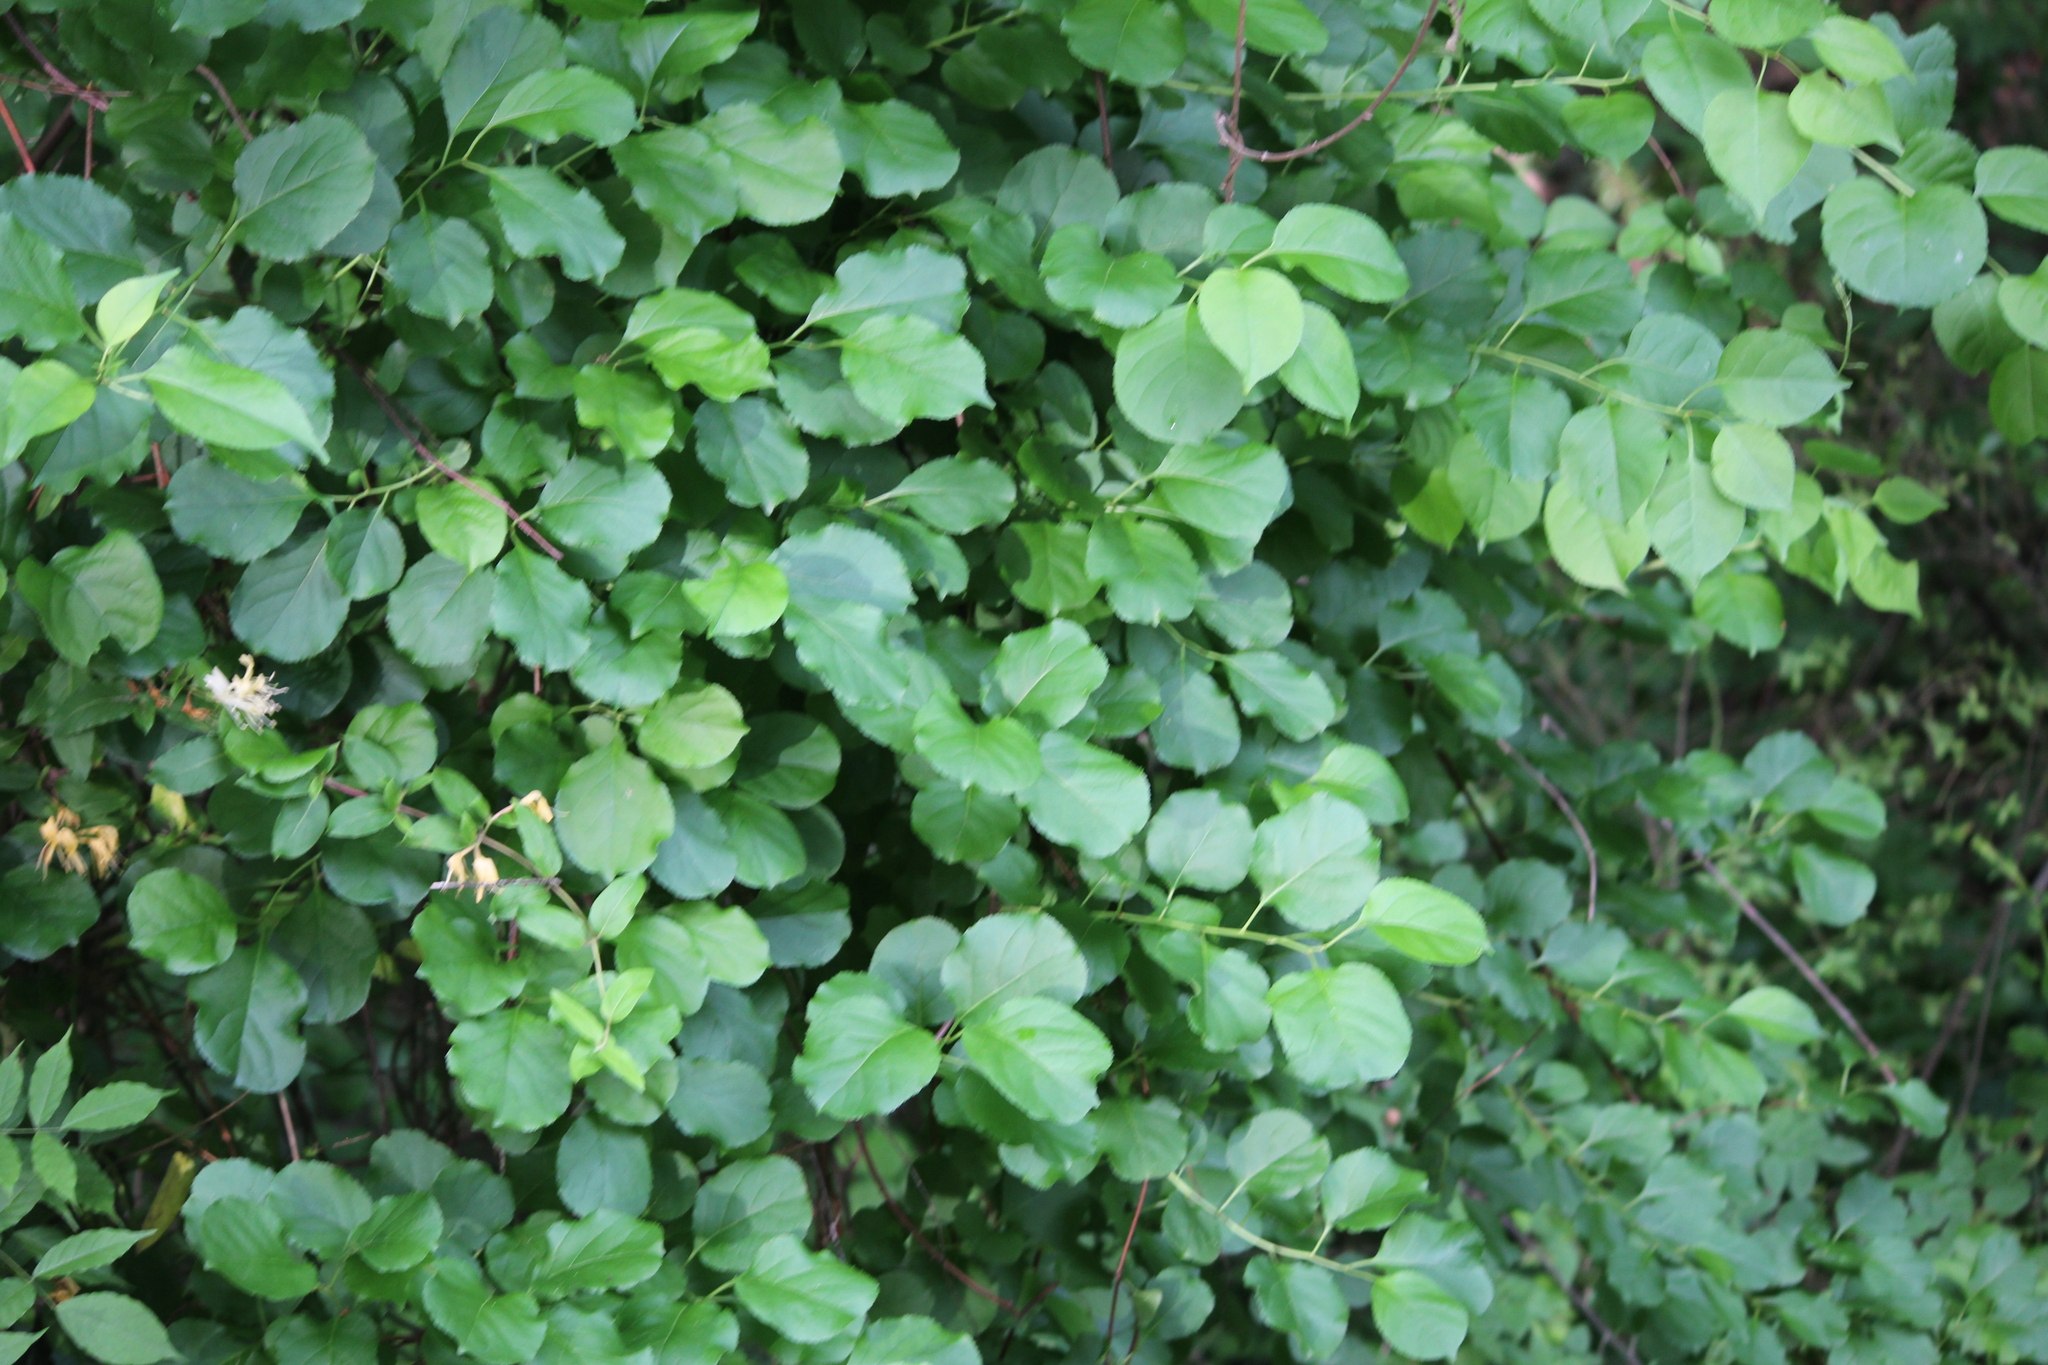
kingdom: Plantae
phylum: Tracheophyta
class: Magnoliopsida
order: Celastrales
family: Celastraceae
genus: Celastrus
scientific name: Celastrus orbiculatus
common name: Oriental bittersweet
